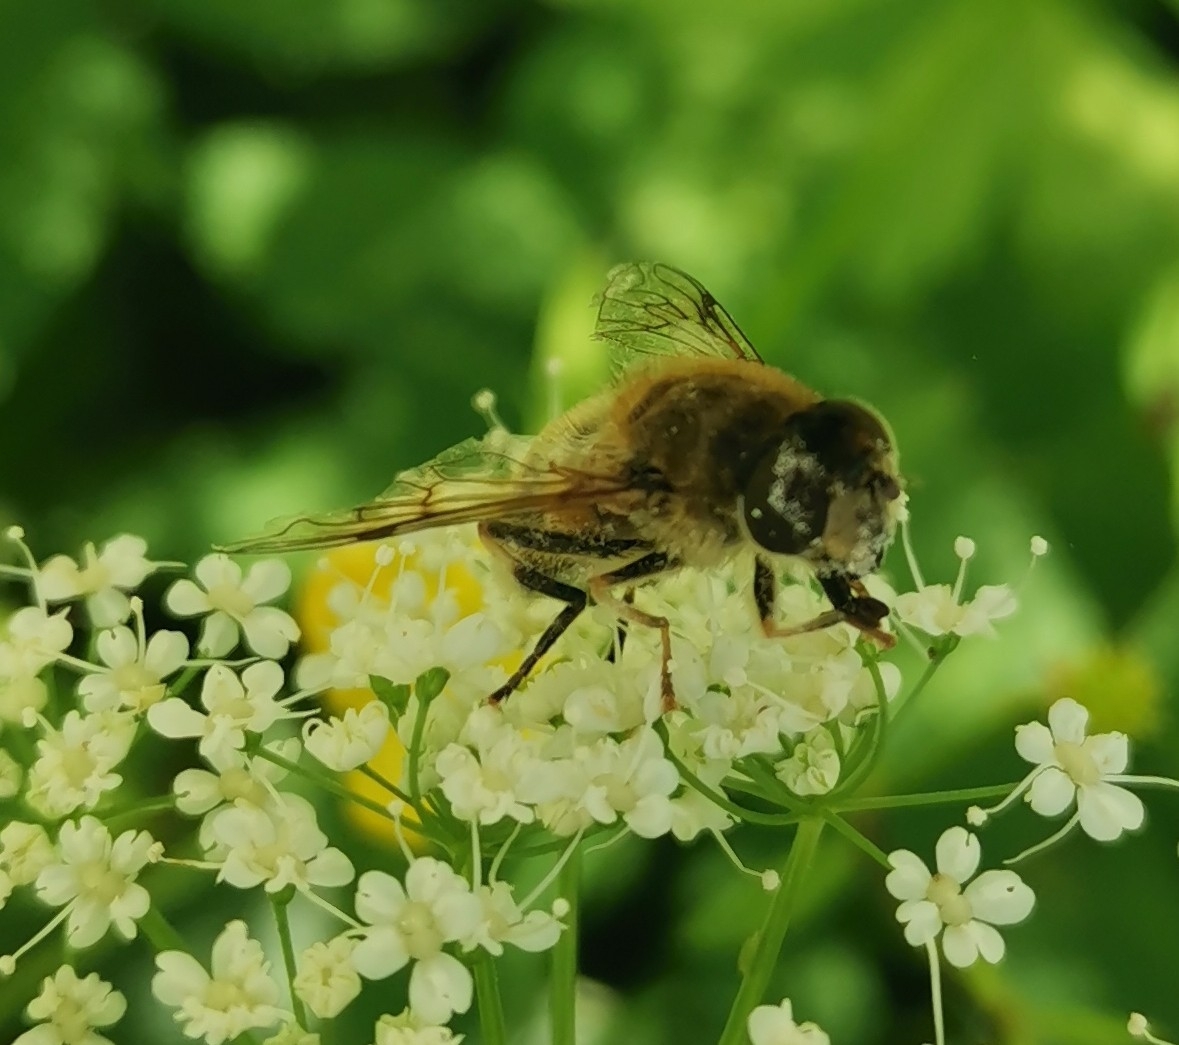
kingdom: Animalia
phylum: Arthropoda
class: Insecta
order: Diptera
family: Syrphidae
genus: Eristalis
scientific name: Eristalis pertinax
